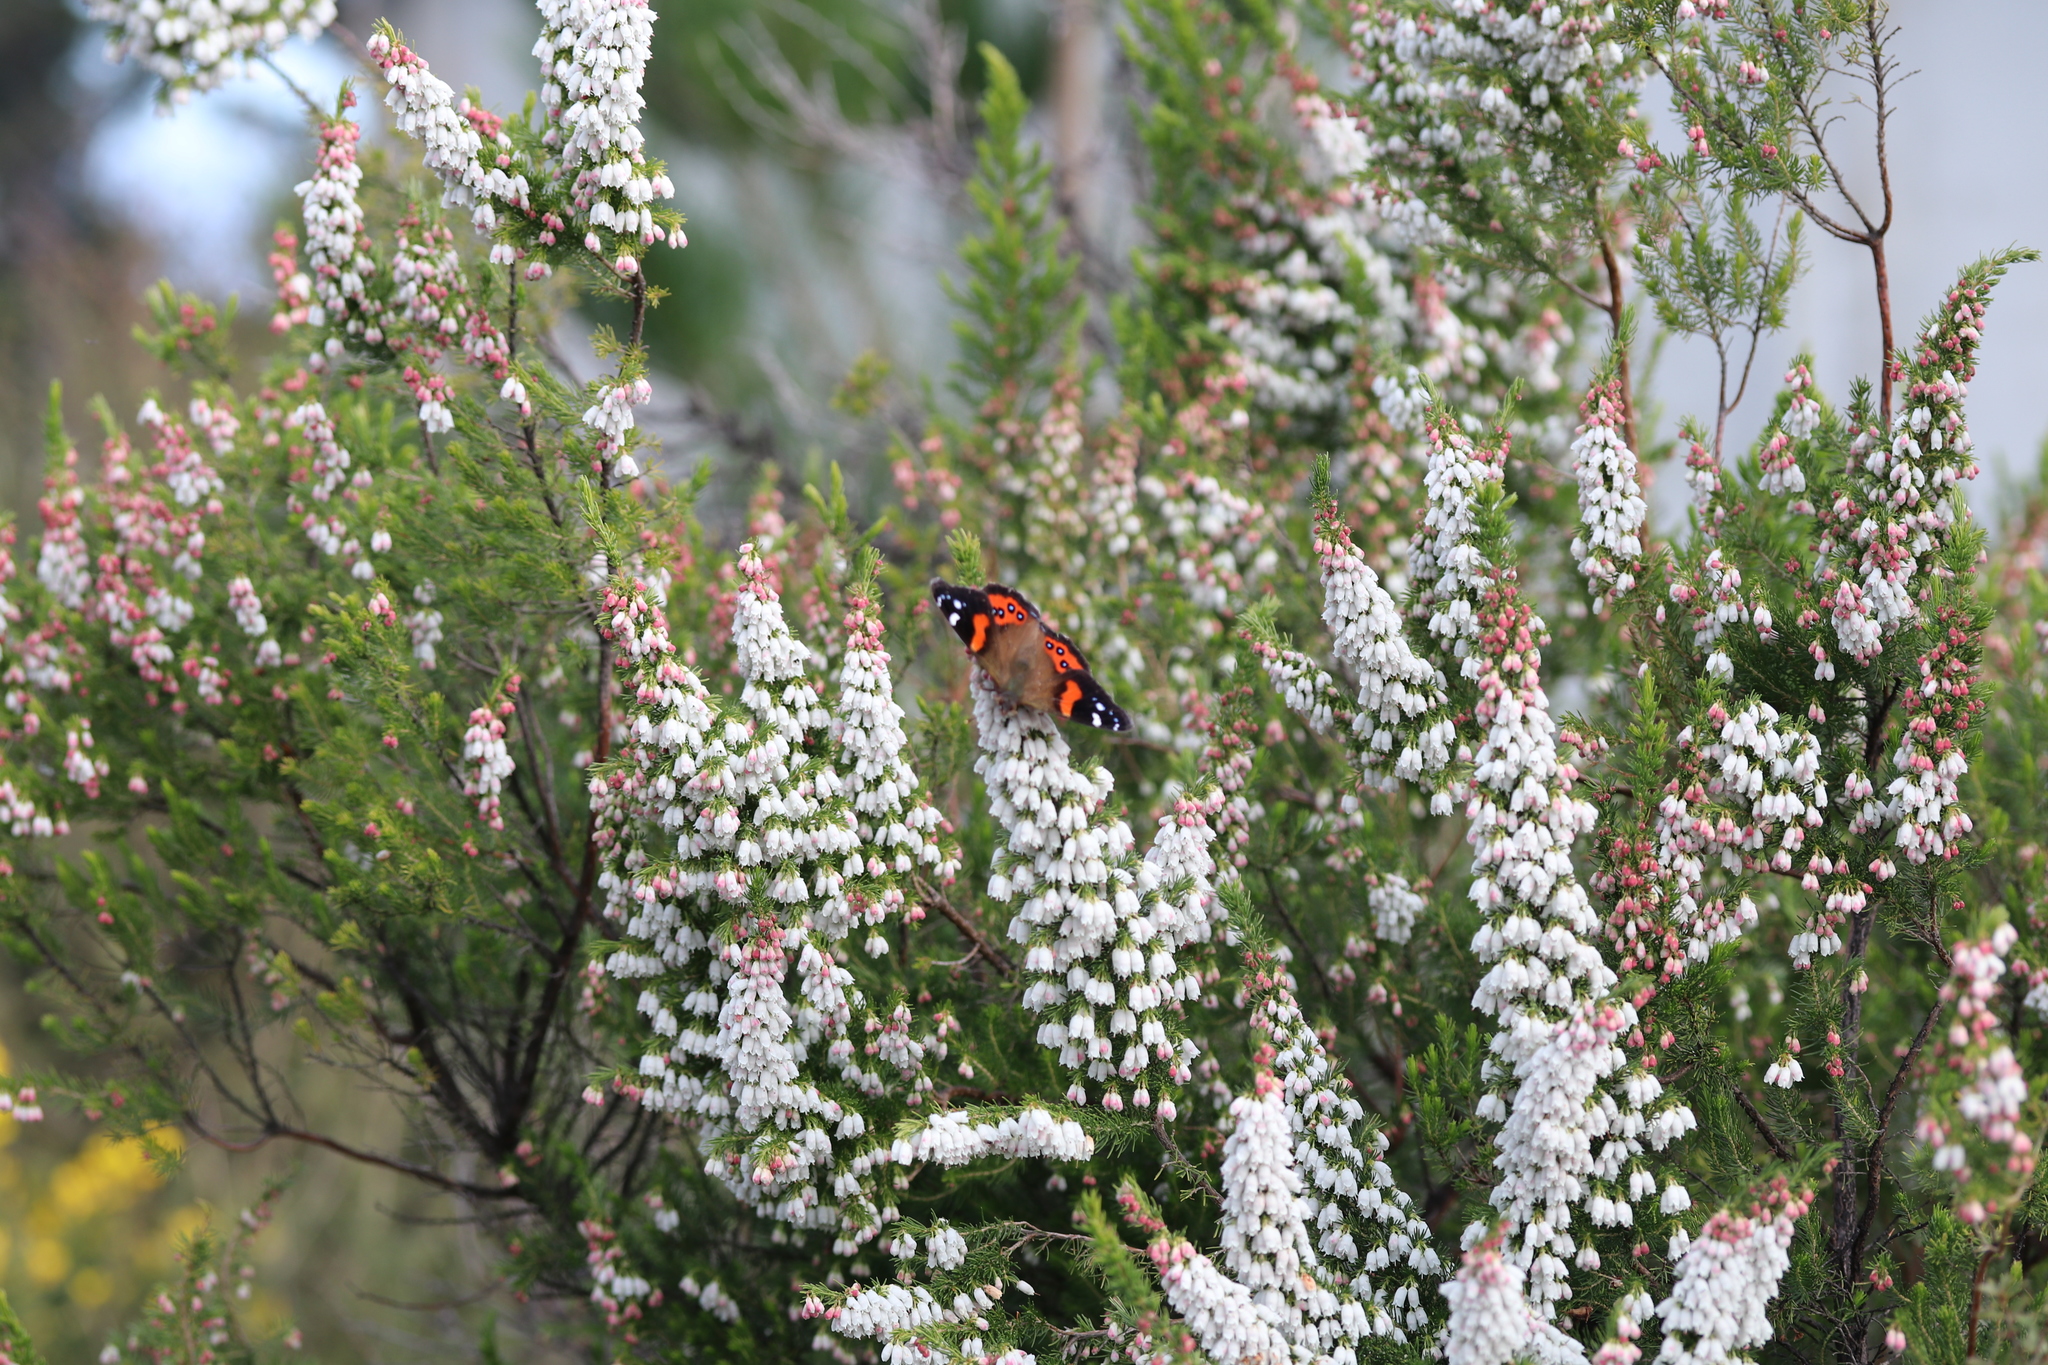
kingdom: Animalia
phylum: Arthropoda
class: Insecta
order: Lepidoptera
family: Nymphalidae
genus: Vanessa
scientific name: Vanessa gonerilla
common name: New zealand red admiral
